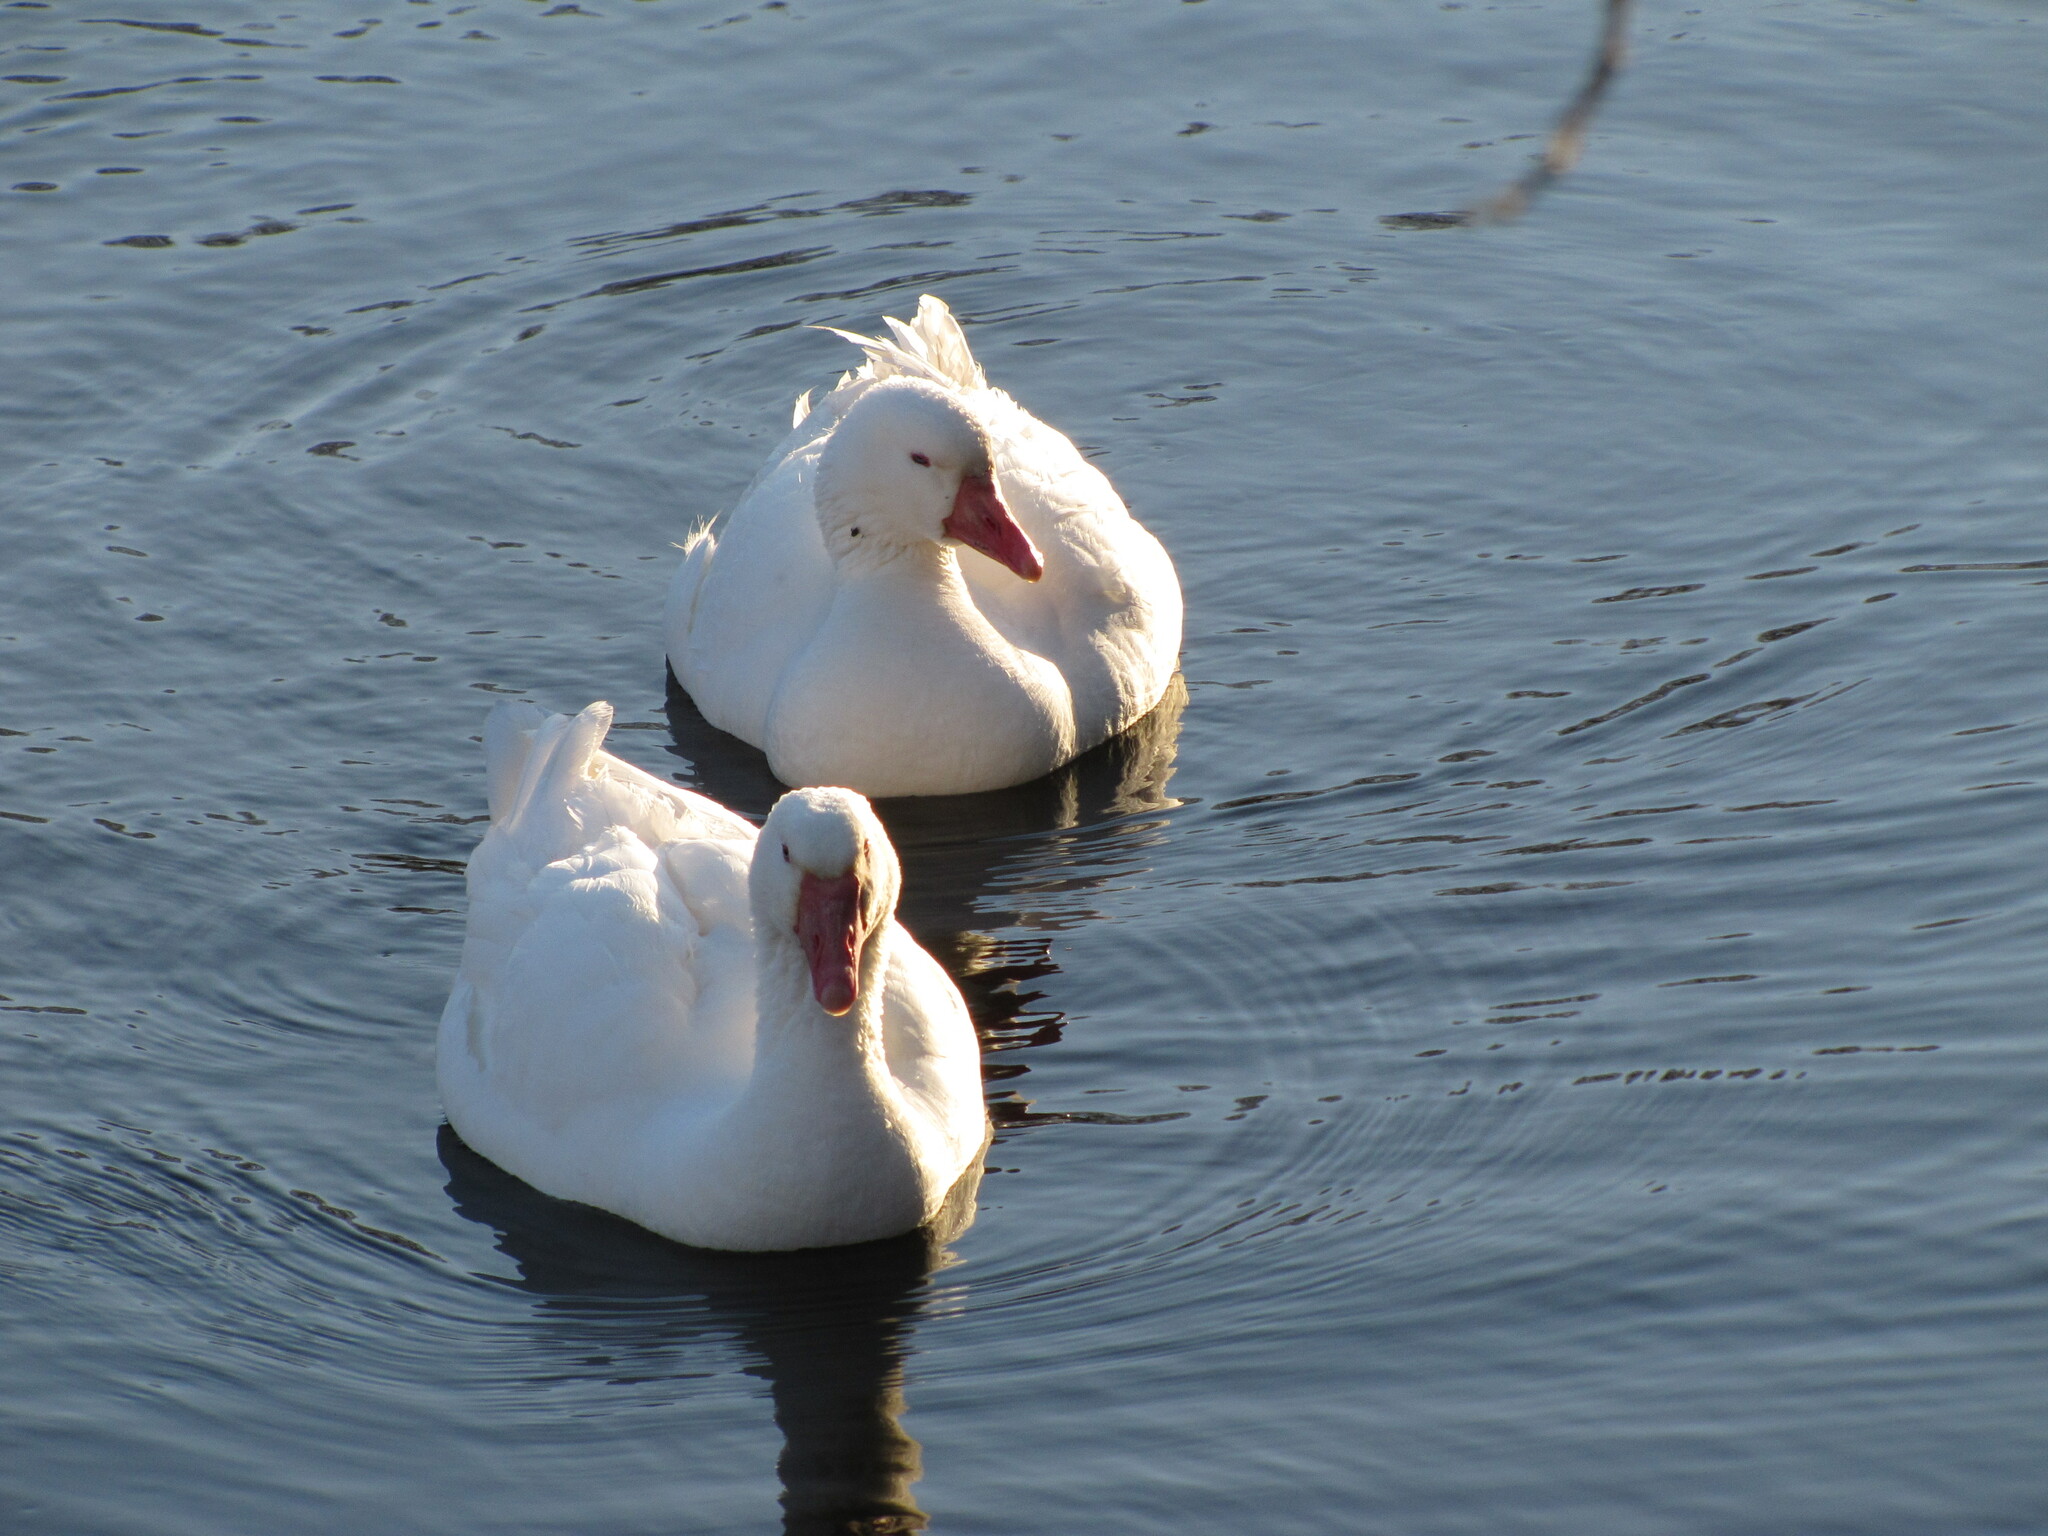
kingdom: Animalia
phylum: Chordata
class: Aves
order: Anseriformes
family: Anatidae
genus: Anser
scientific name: Anser anser
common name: Greylag goose
